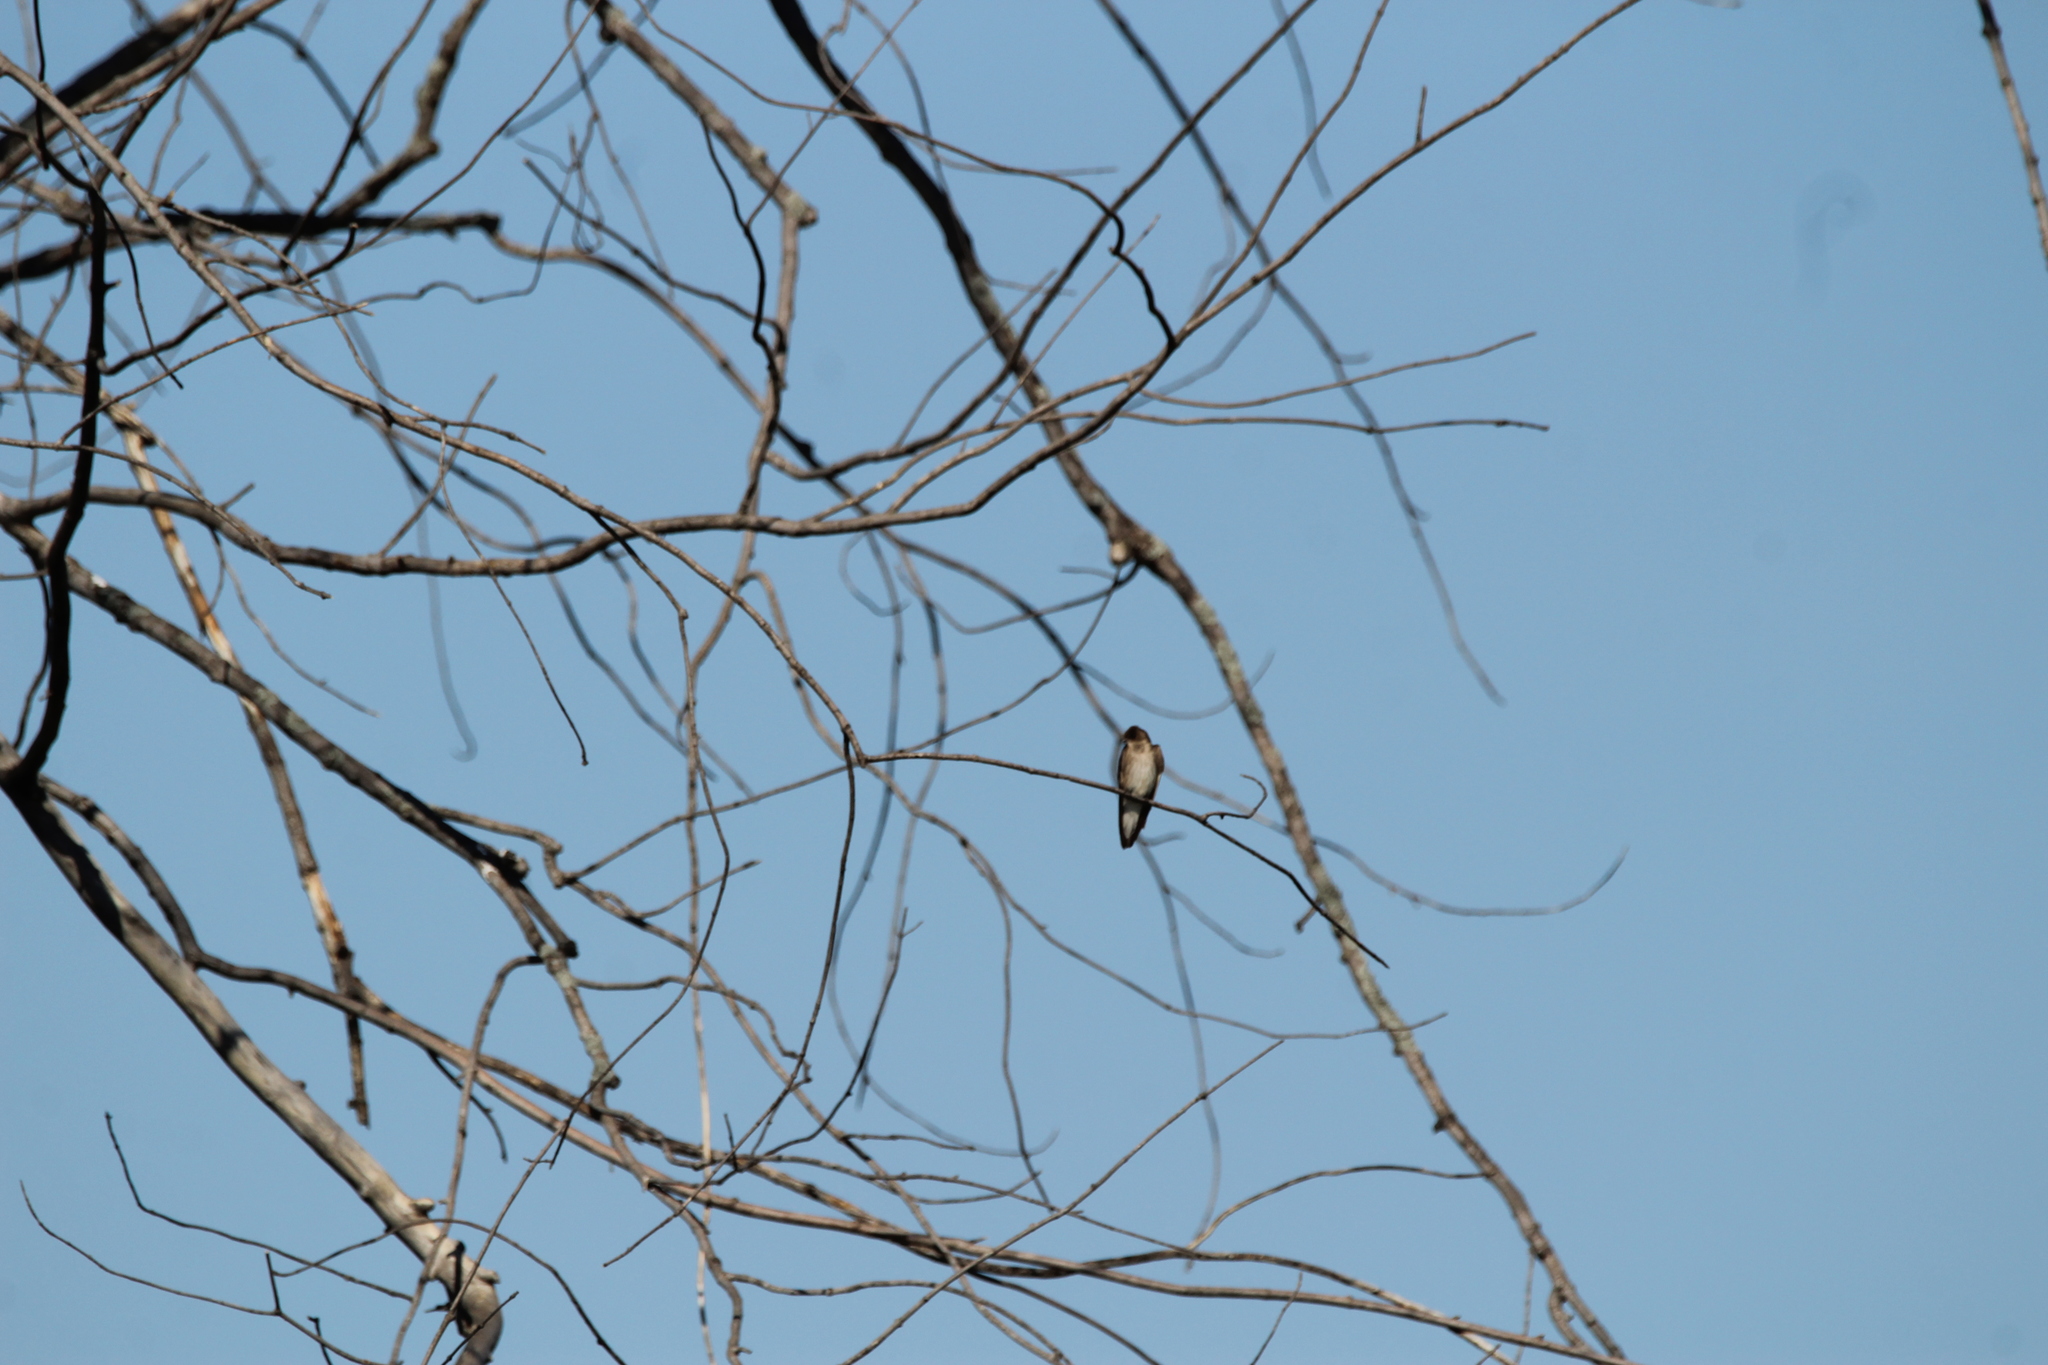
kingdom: Animalia
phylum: Chordata
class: Aves
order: Passeriformes
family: Hirundinidae
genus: Stelgidopteryx
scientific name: Stelgidopteryx serripennis
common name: Northern rough-winged swallow
